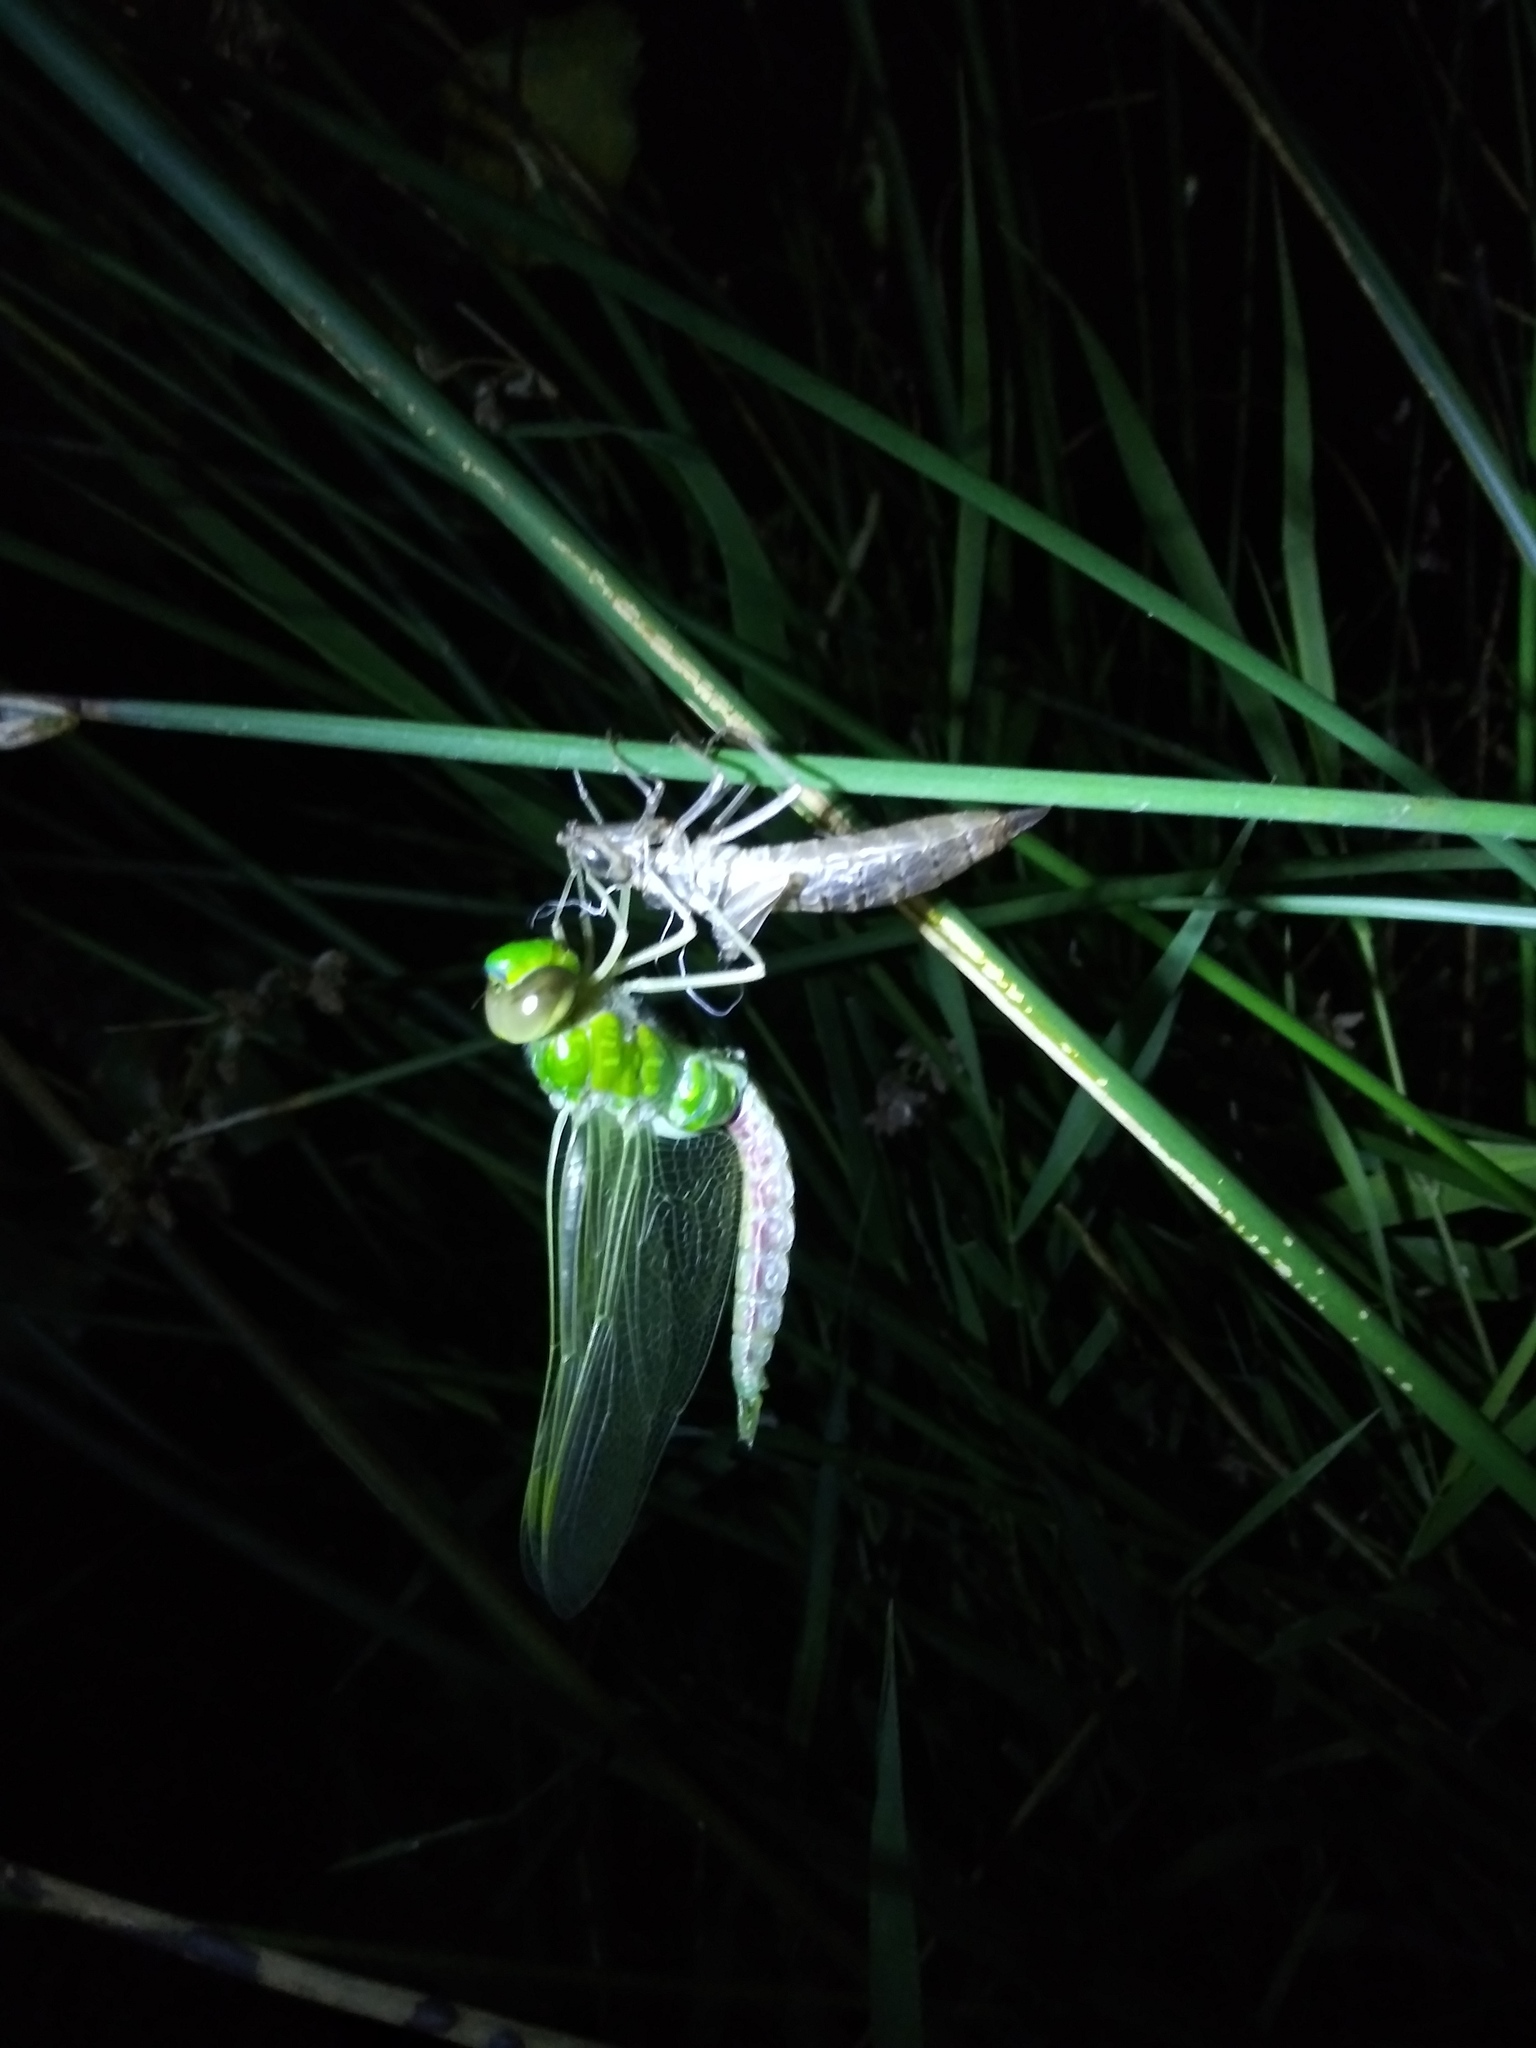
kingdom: Animalia
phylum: Arthropoda
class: Insecta
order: Odonata
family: Aeshnidae
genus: Anax
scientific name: Anax junius
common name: Common green darner
